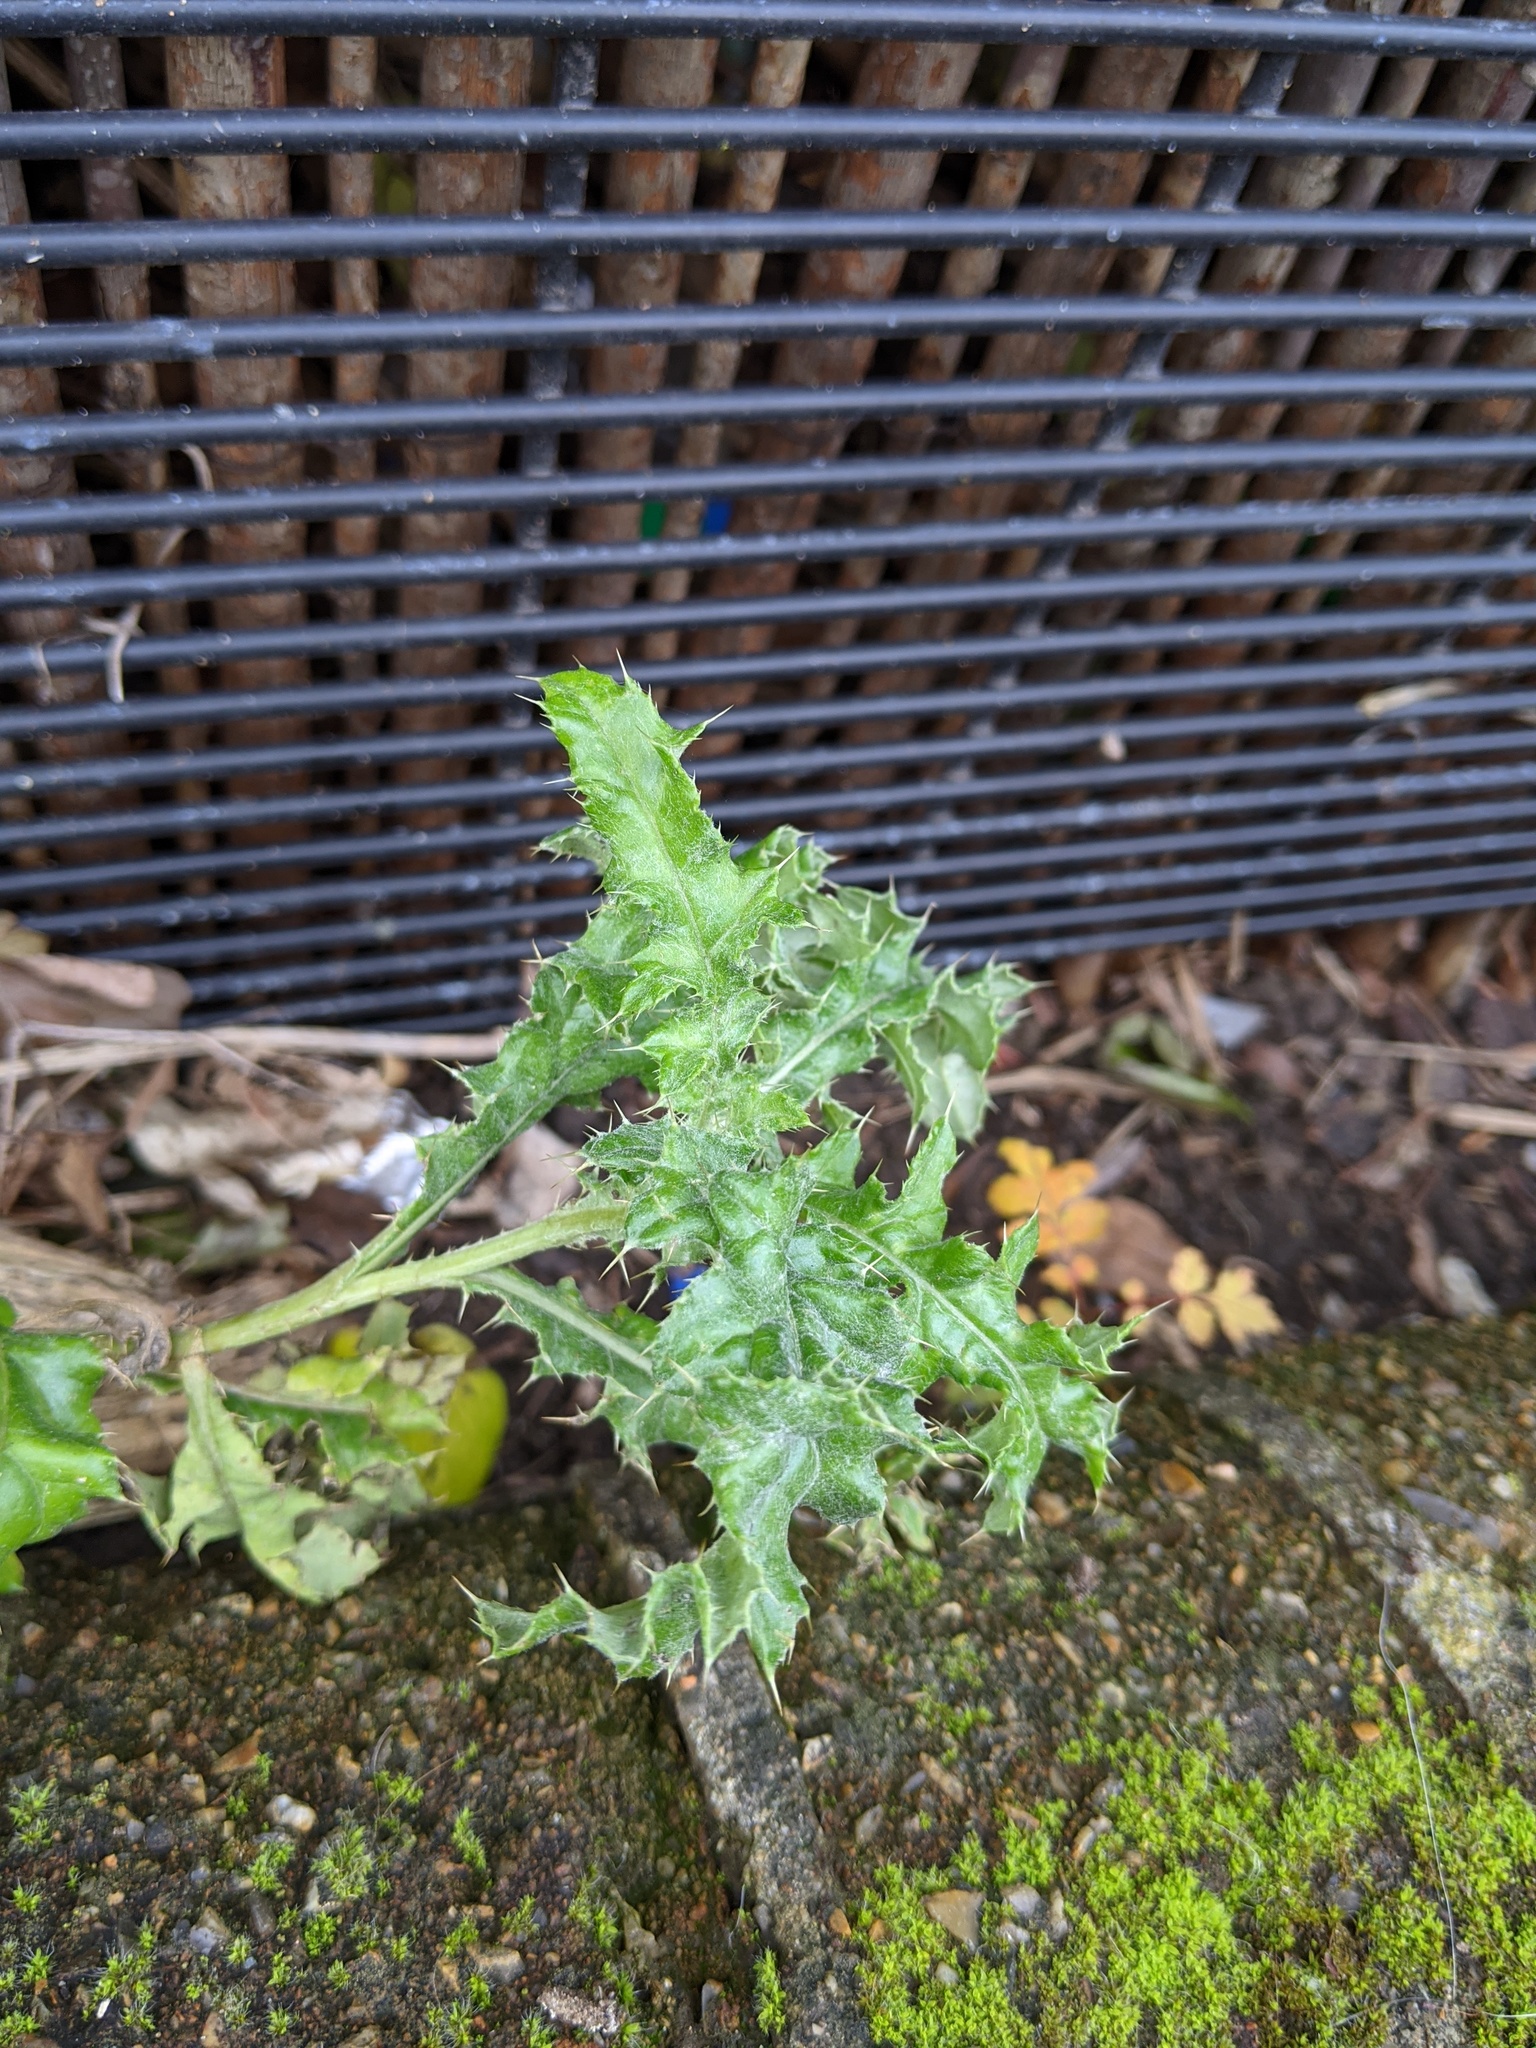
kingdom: Plantae
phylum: Tracheophyta
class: Magnoliopsida
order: Asterales
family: Asteraceae
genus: Cirsium
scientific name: Cirsium arvense
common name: Creeping thistle
